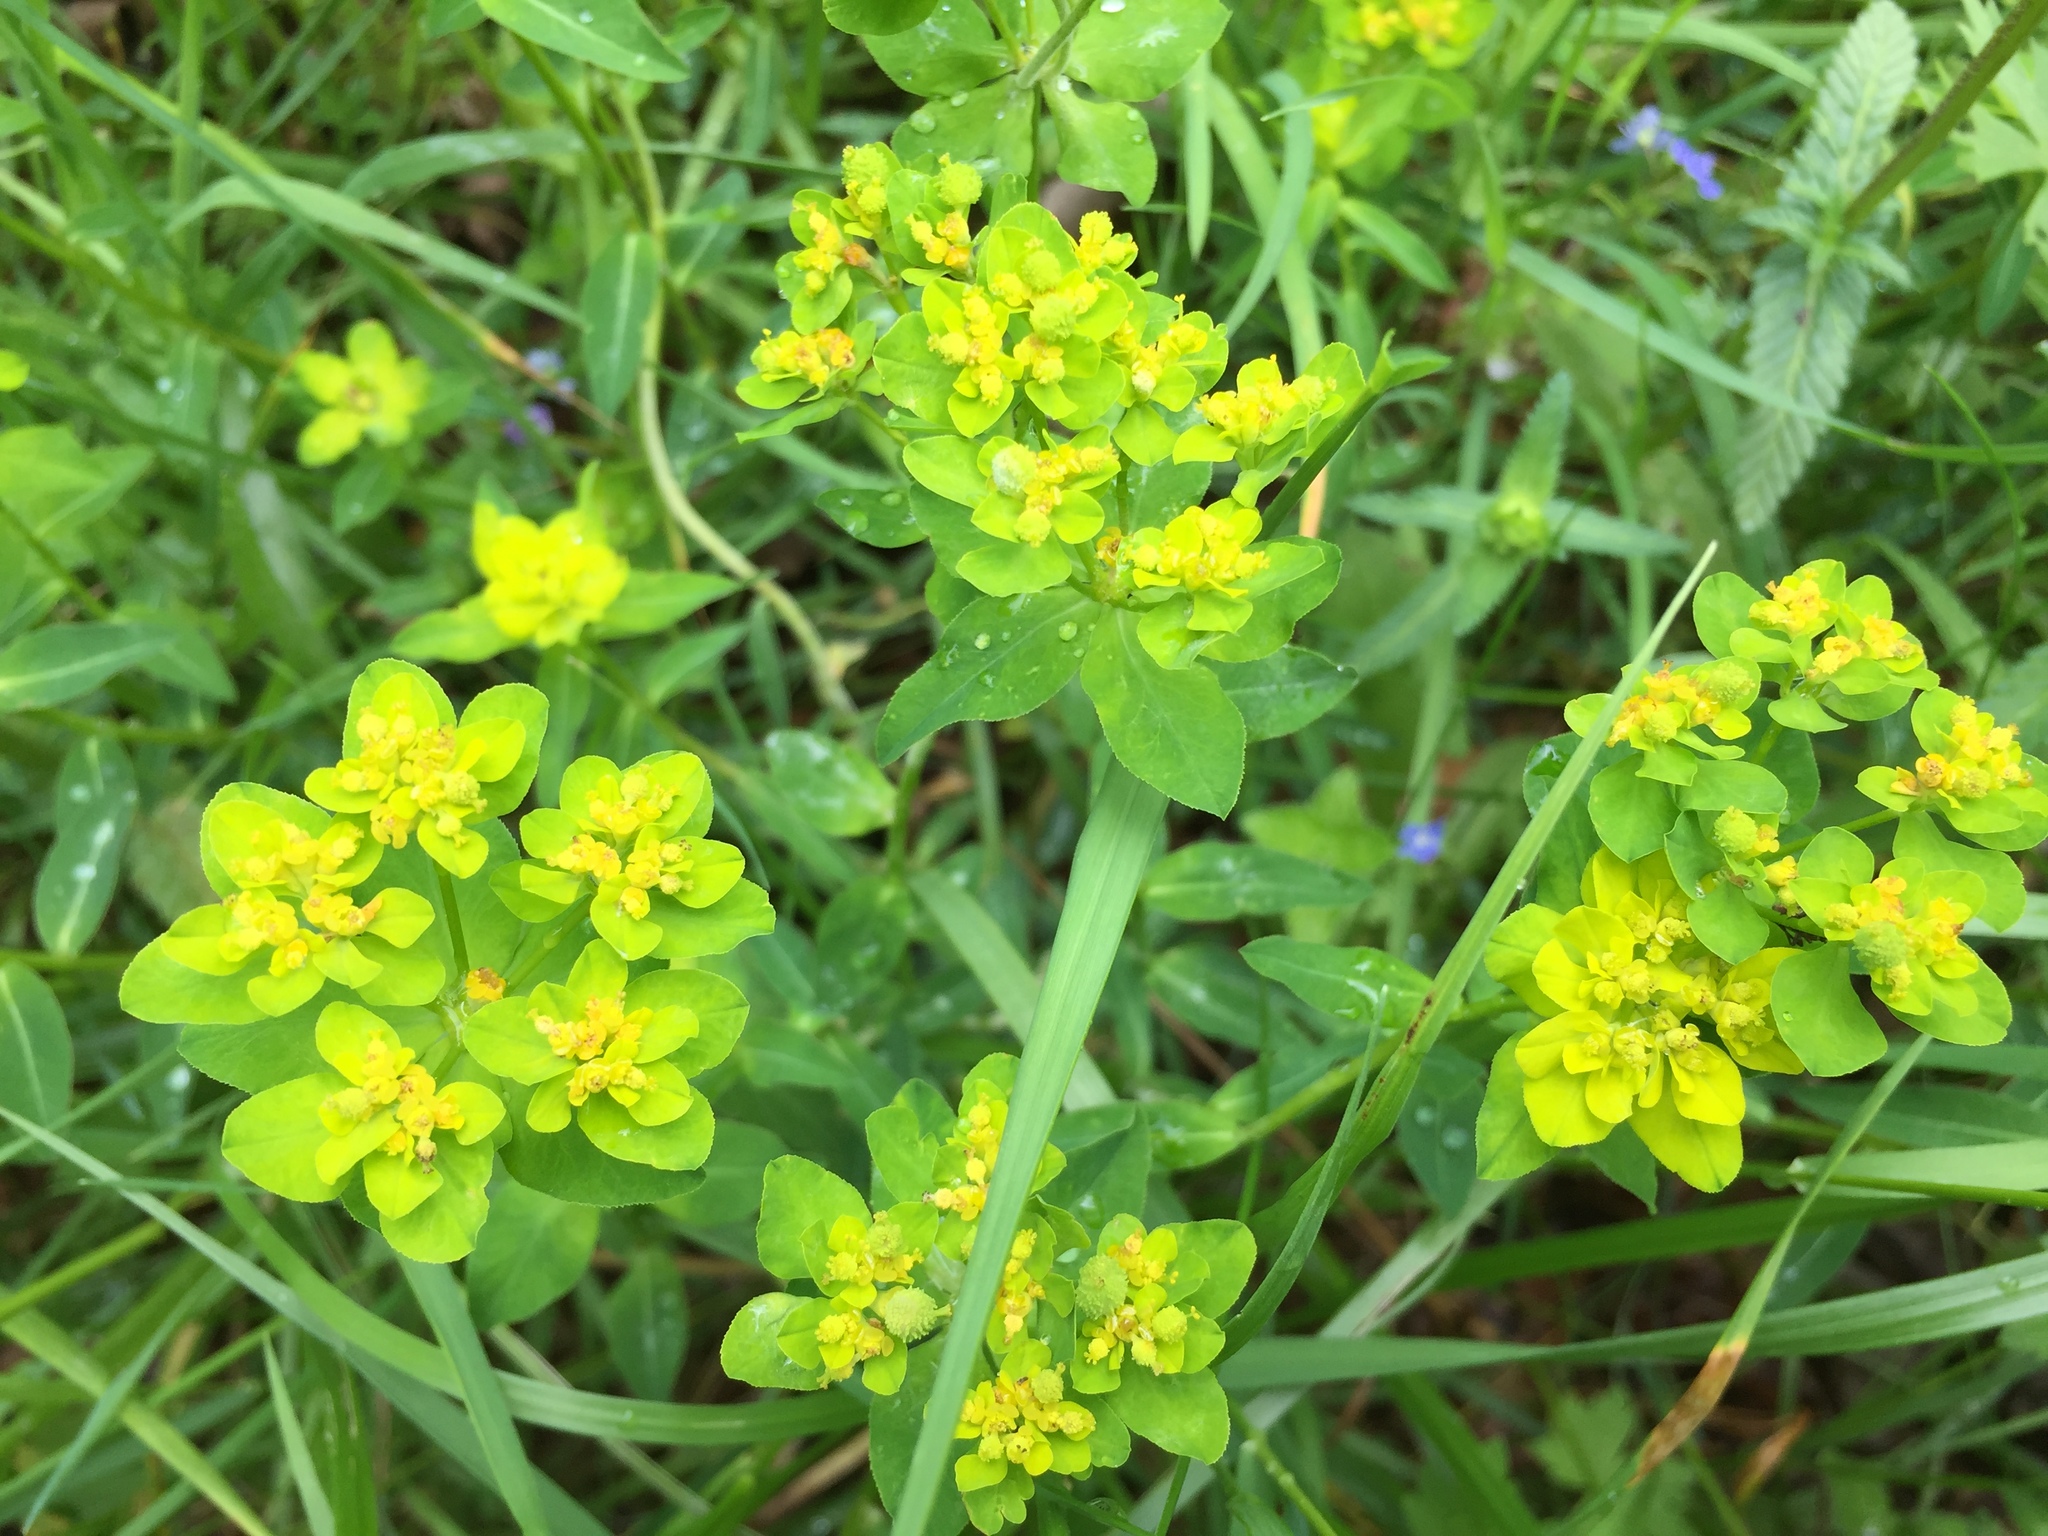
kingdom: Plantae
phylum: Tracheophyta
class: Magnoliopsida
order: Malpighiales
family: Euphorbiaceae
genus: Euphorbia
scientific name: Euphorbia verrucosa
